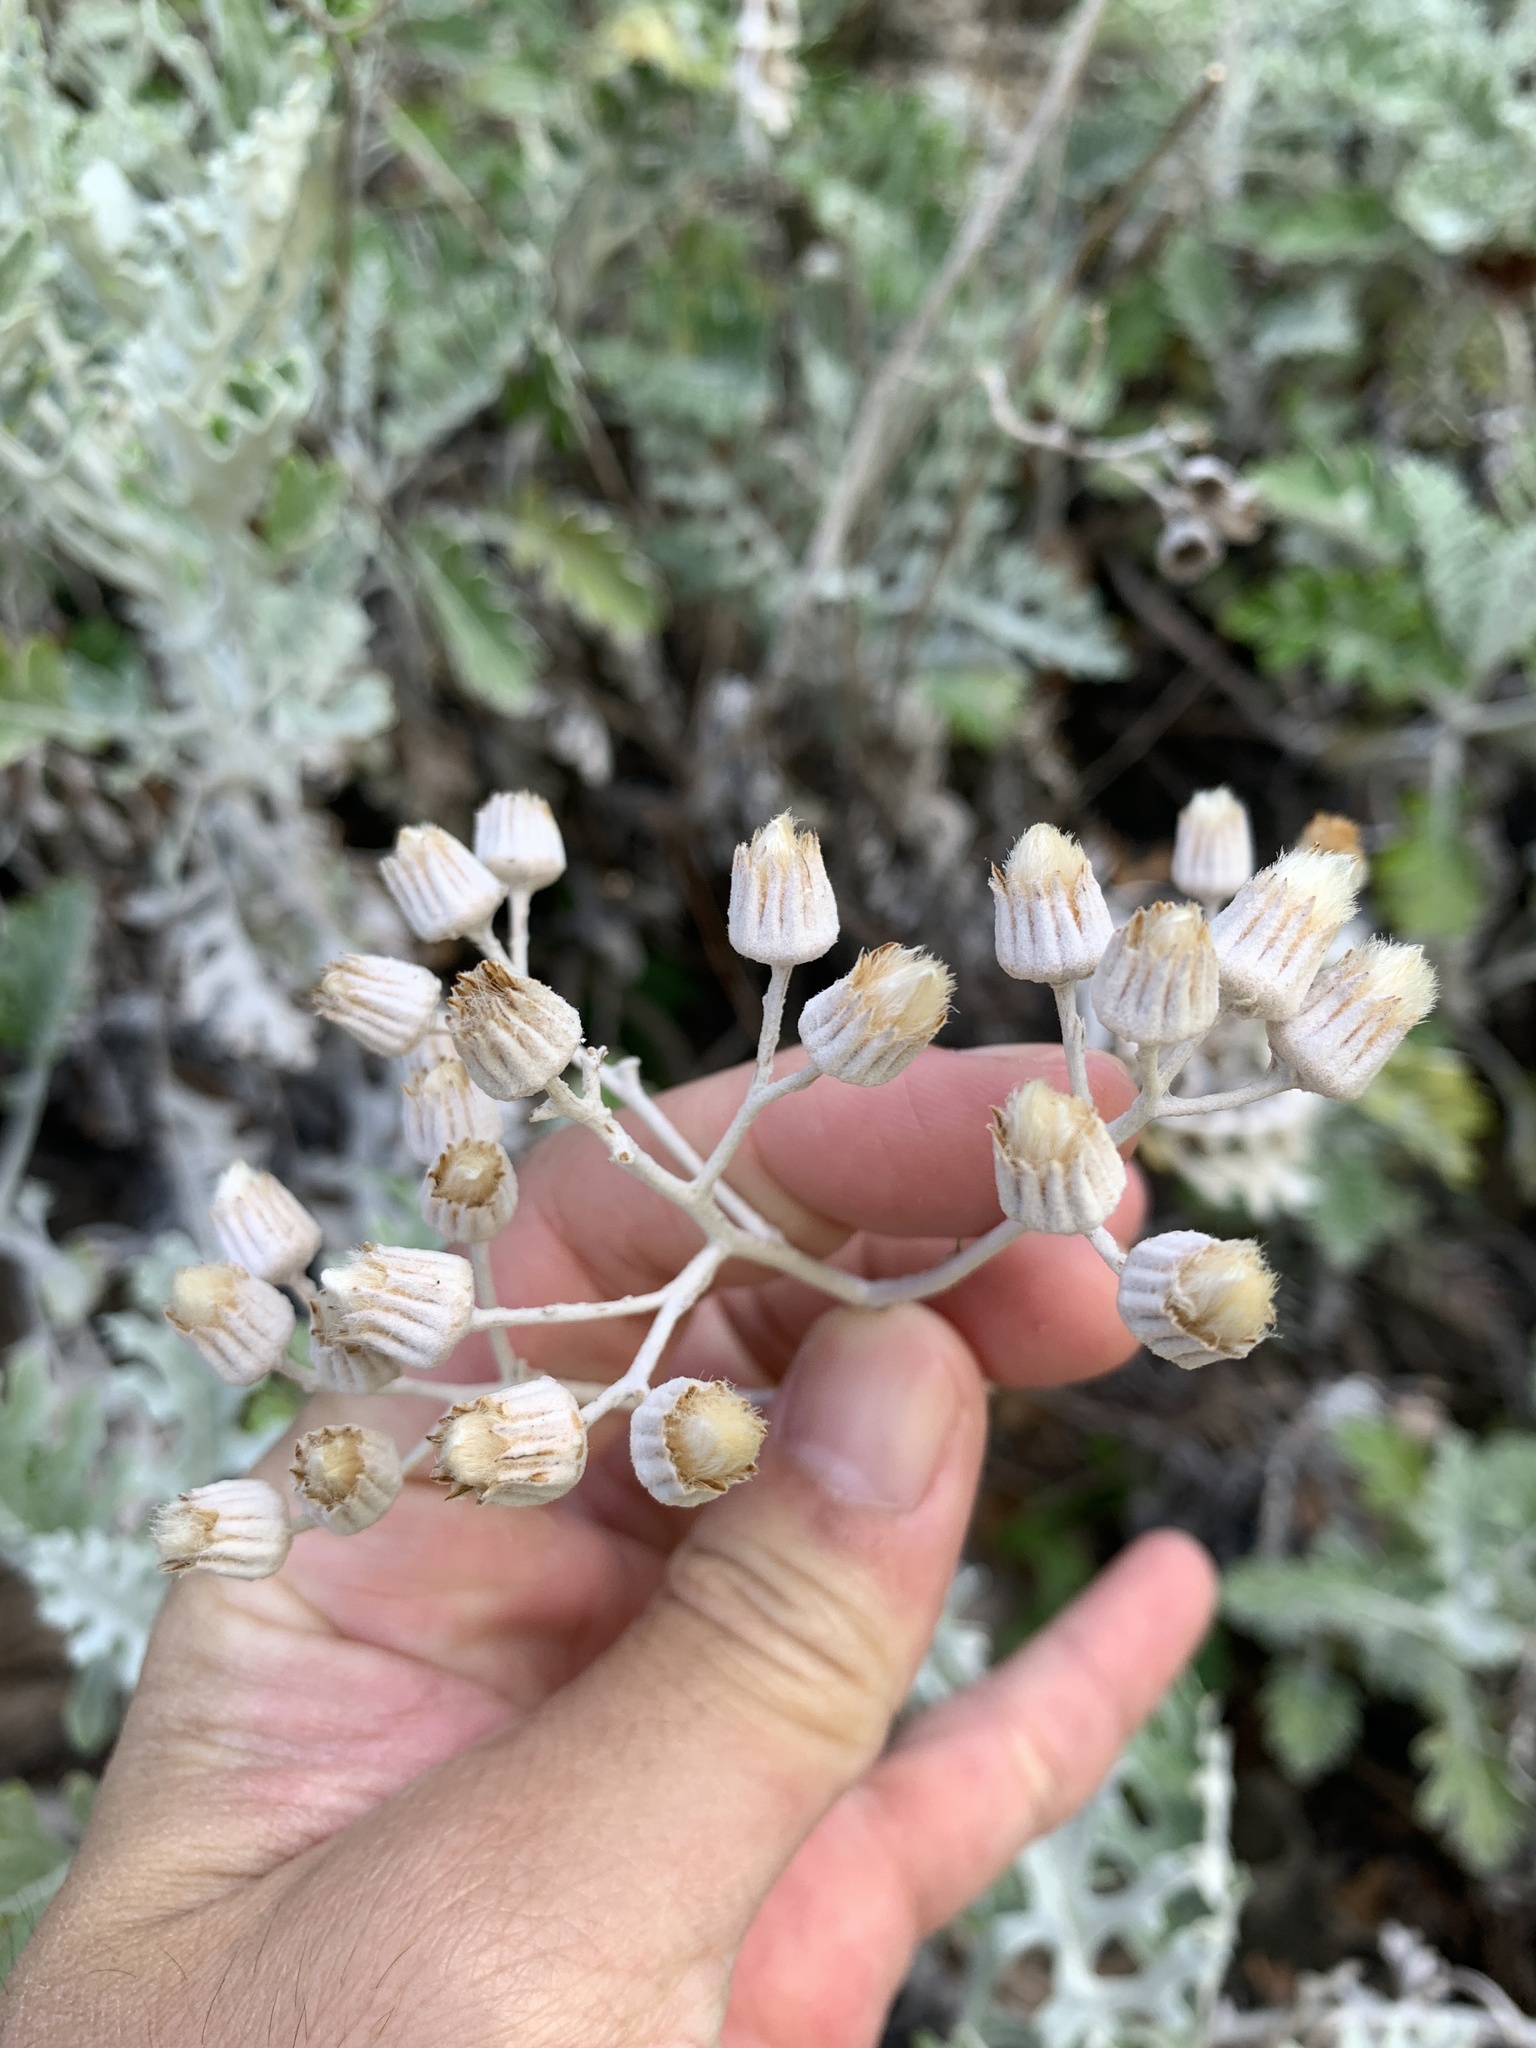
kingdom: Plantae
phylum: Tracheophyta
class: Magnoliopsida
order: Asterales
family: Asteraceae
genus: Jacobaea
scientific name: Jacobaea maritima
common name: Silver ragwort
